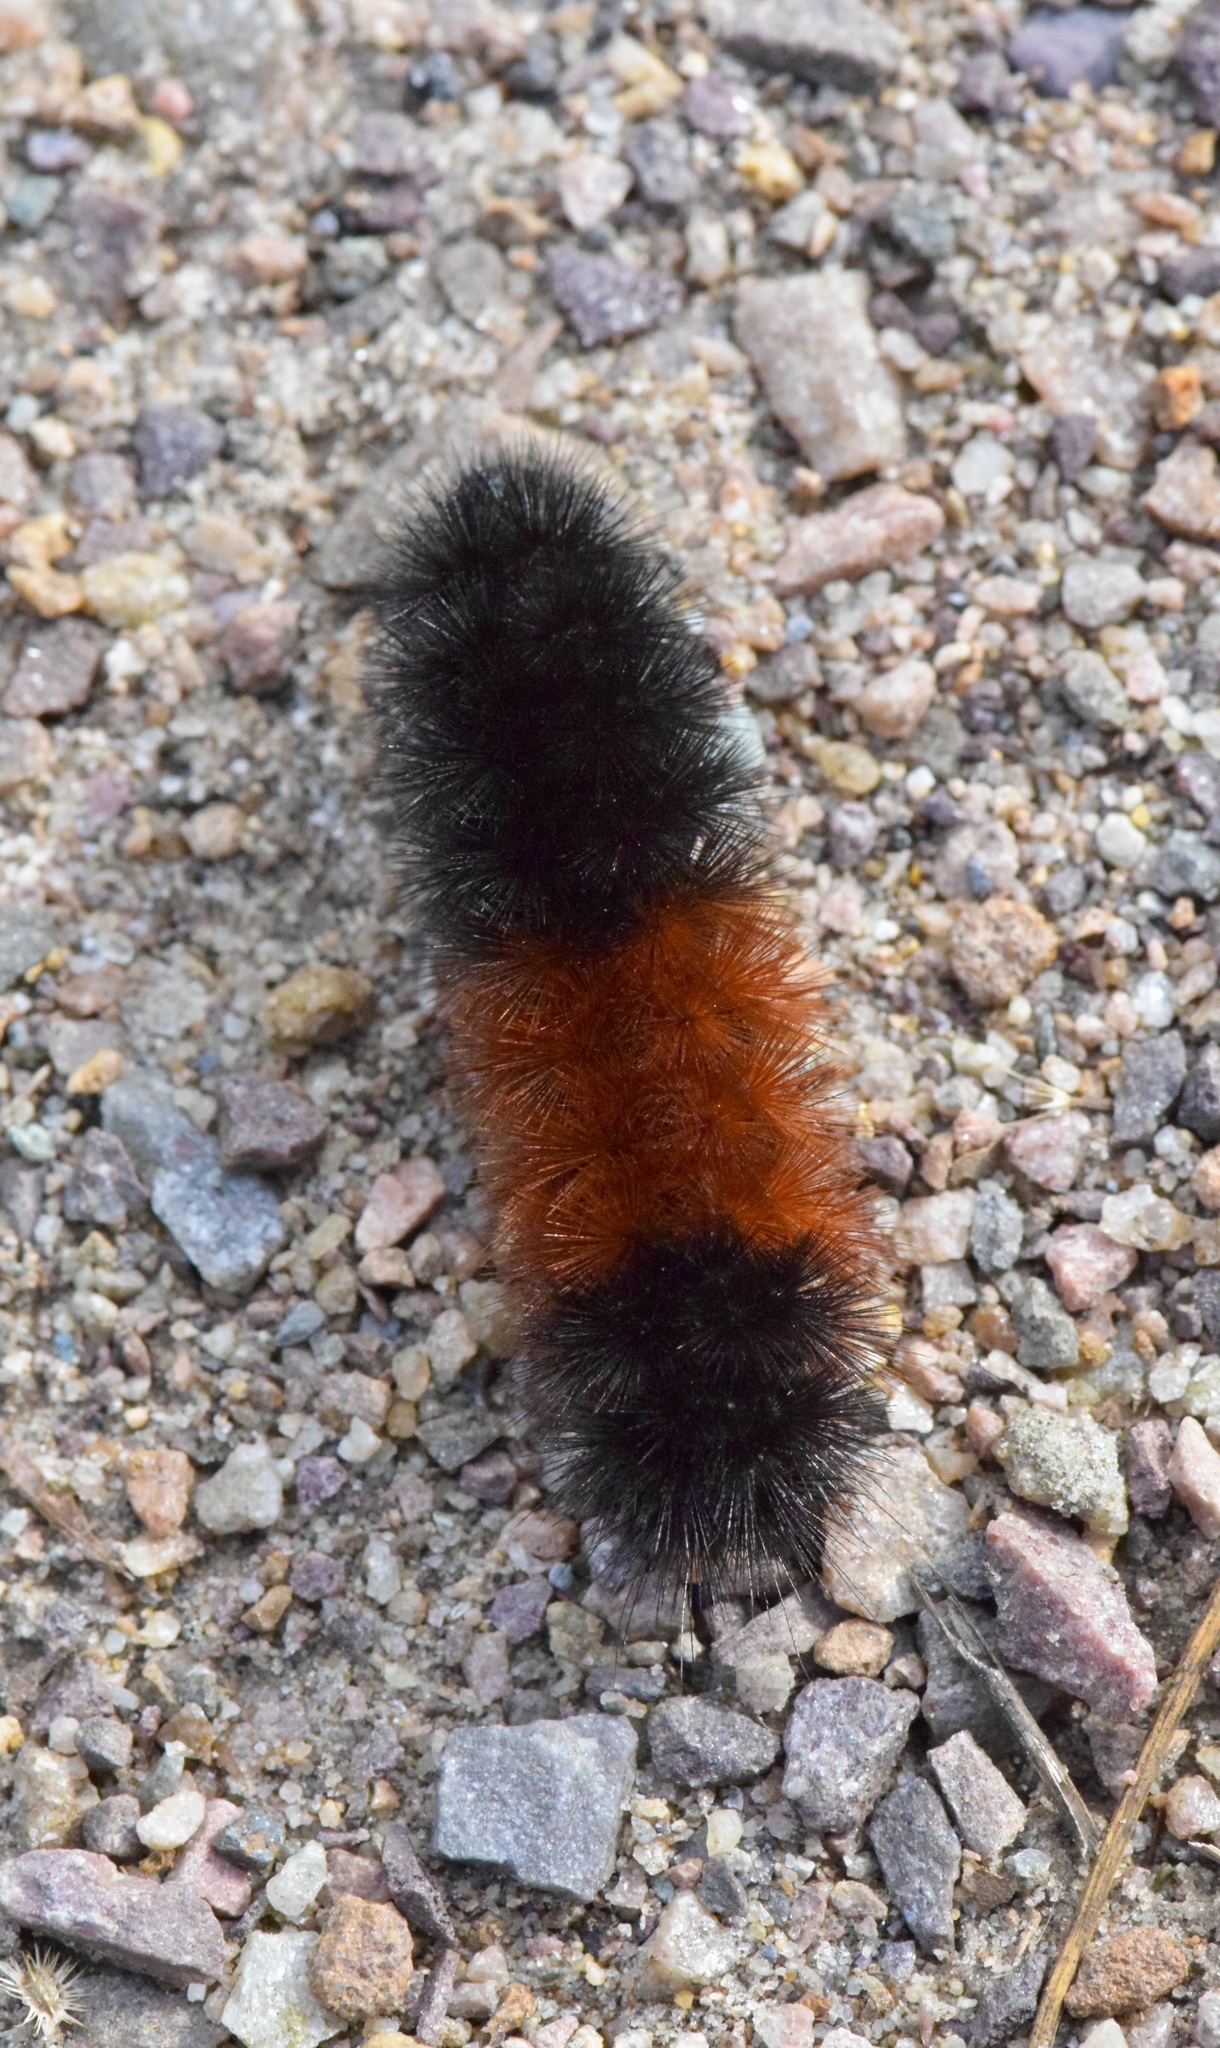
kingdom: Animalia
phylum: Arthropoda
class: Insecta
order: Lepidoptera
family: Erebidae
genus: Pyrrharctia
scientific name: Pyrrharctia isabella
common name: Isabella tiger moth
